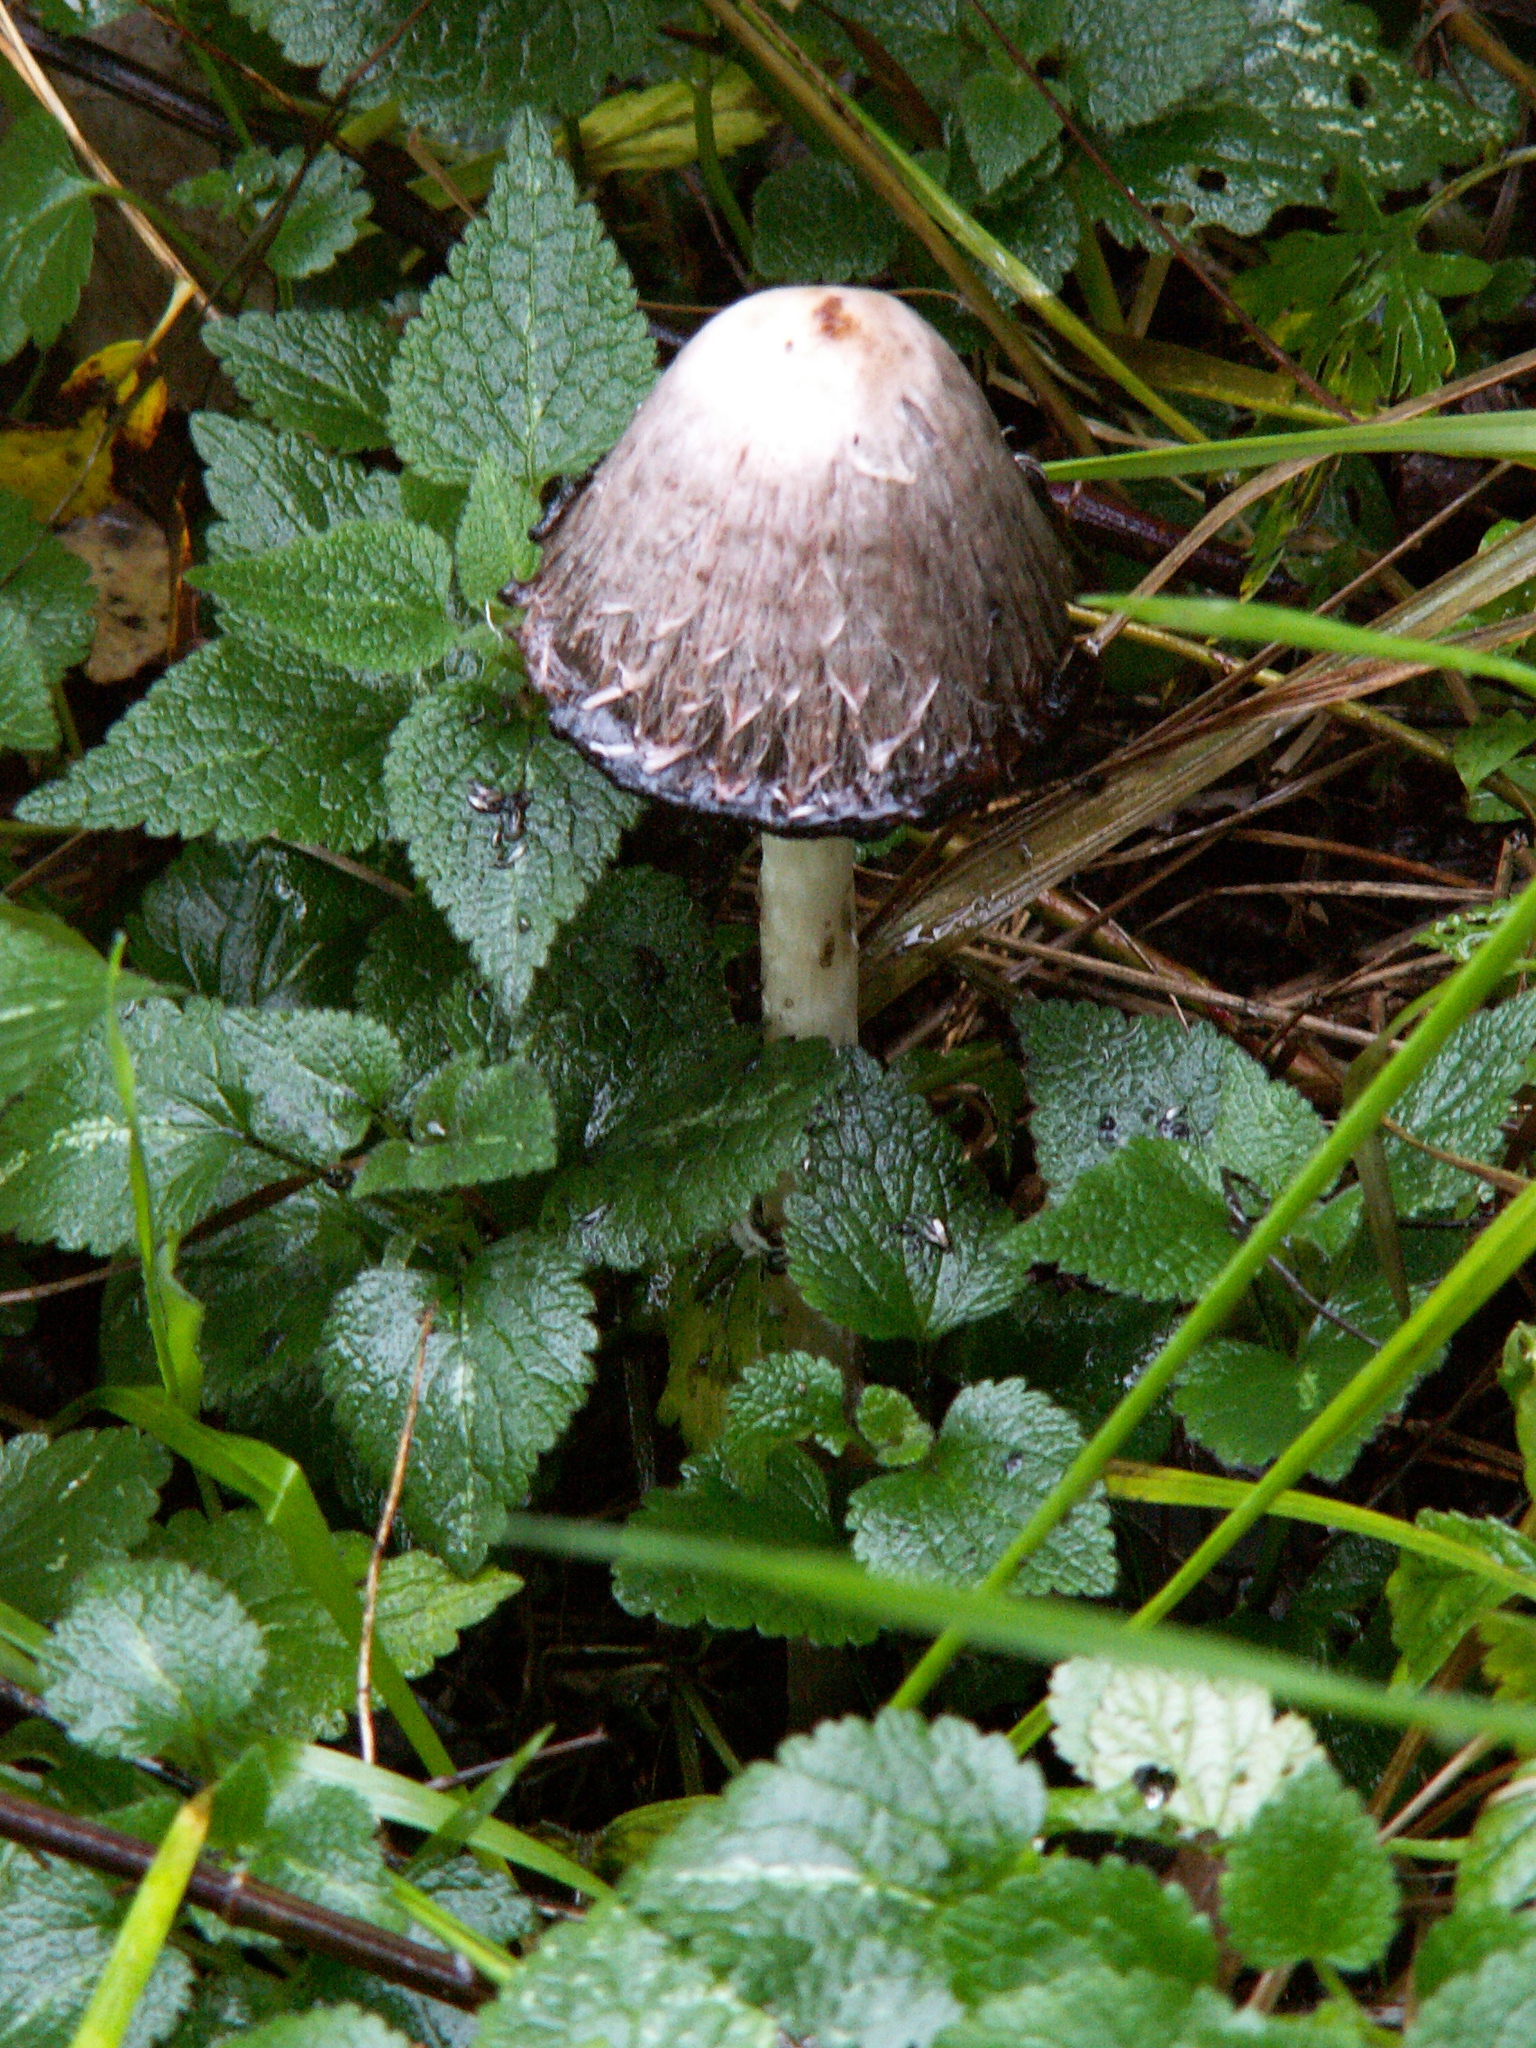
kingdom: Fungi
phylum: Basidiomycota
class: Agaricomycetes
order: Agaricales
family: Agaricaceae
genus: Coprinus
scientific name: Coprinus comatus
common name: Lawyer's wig
